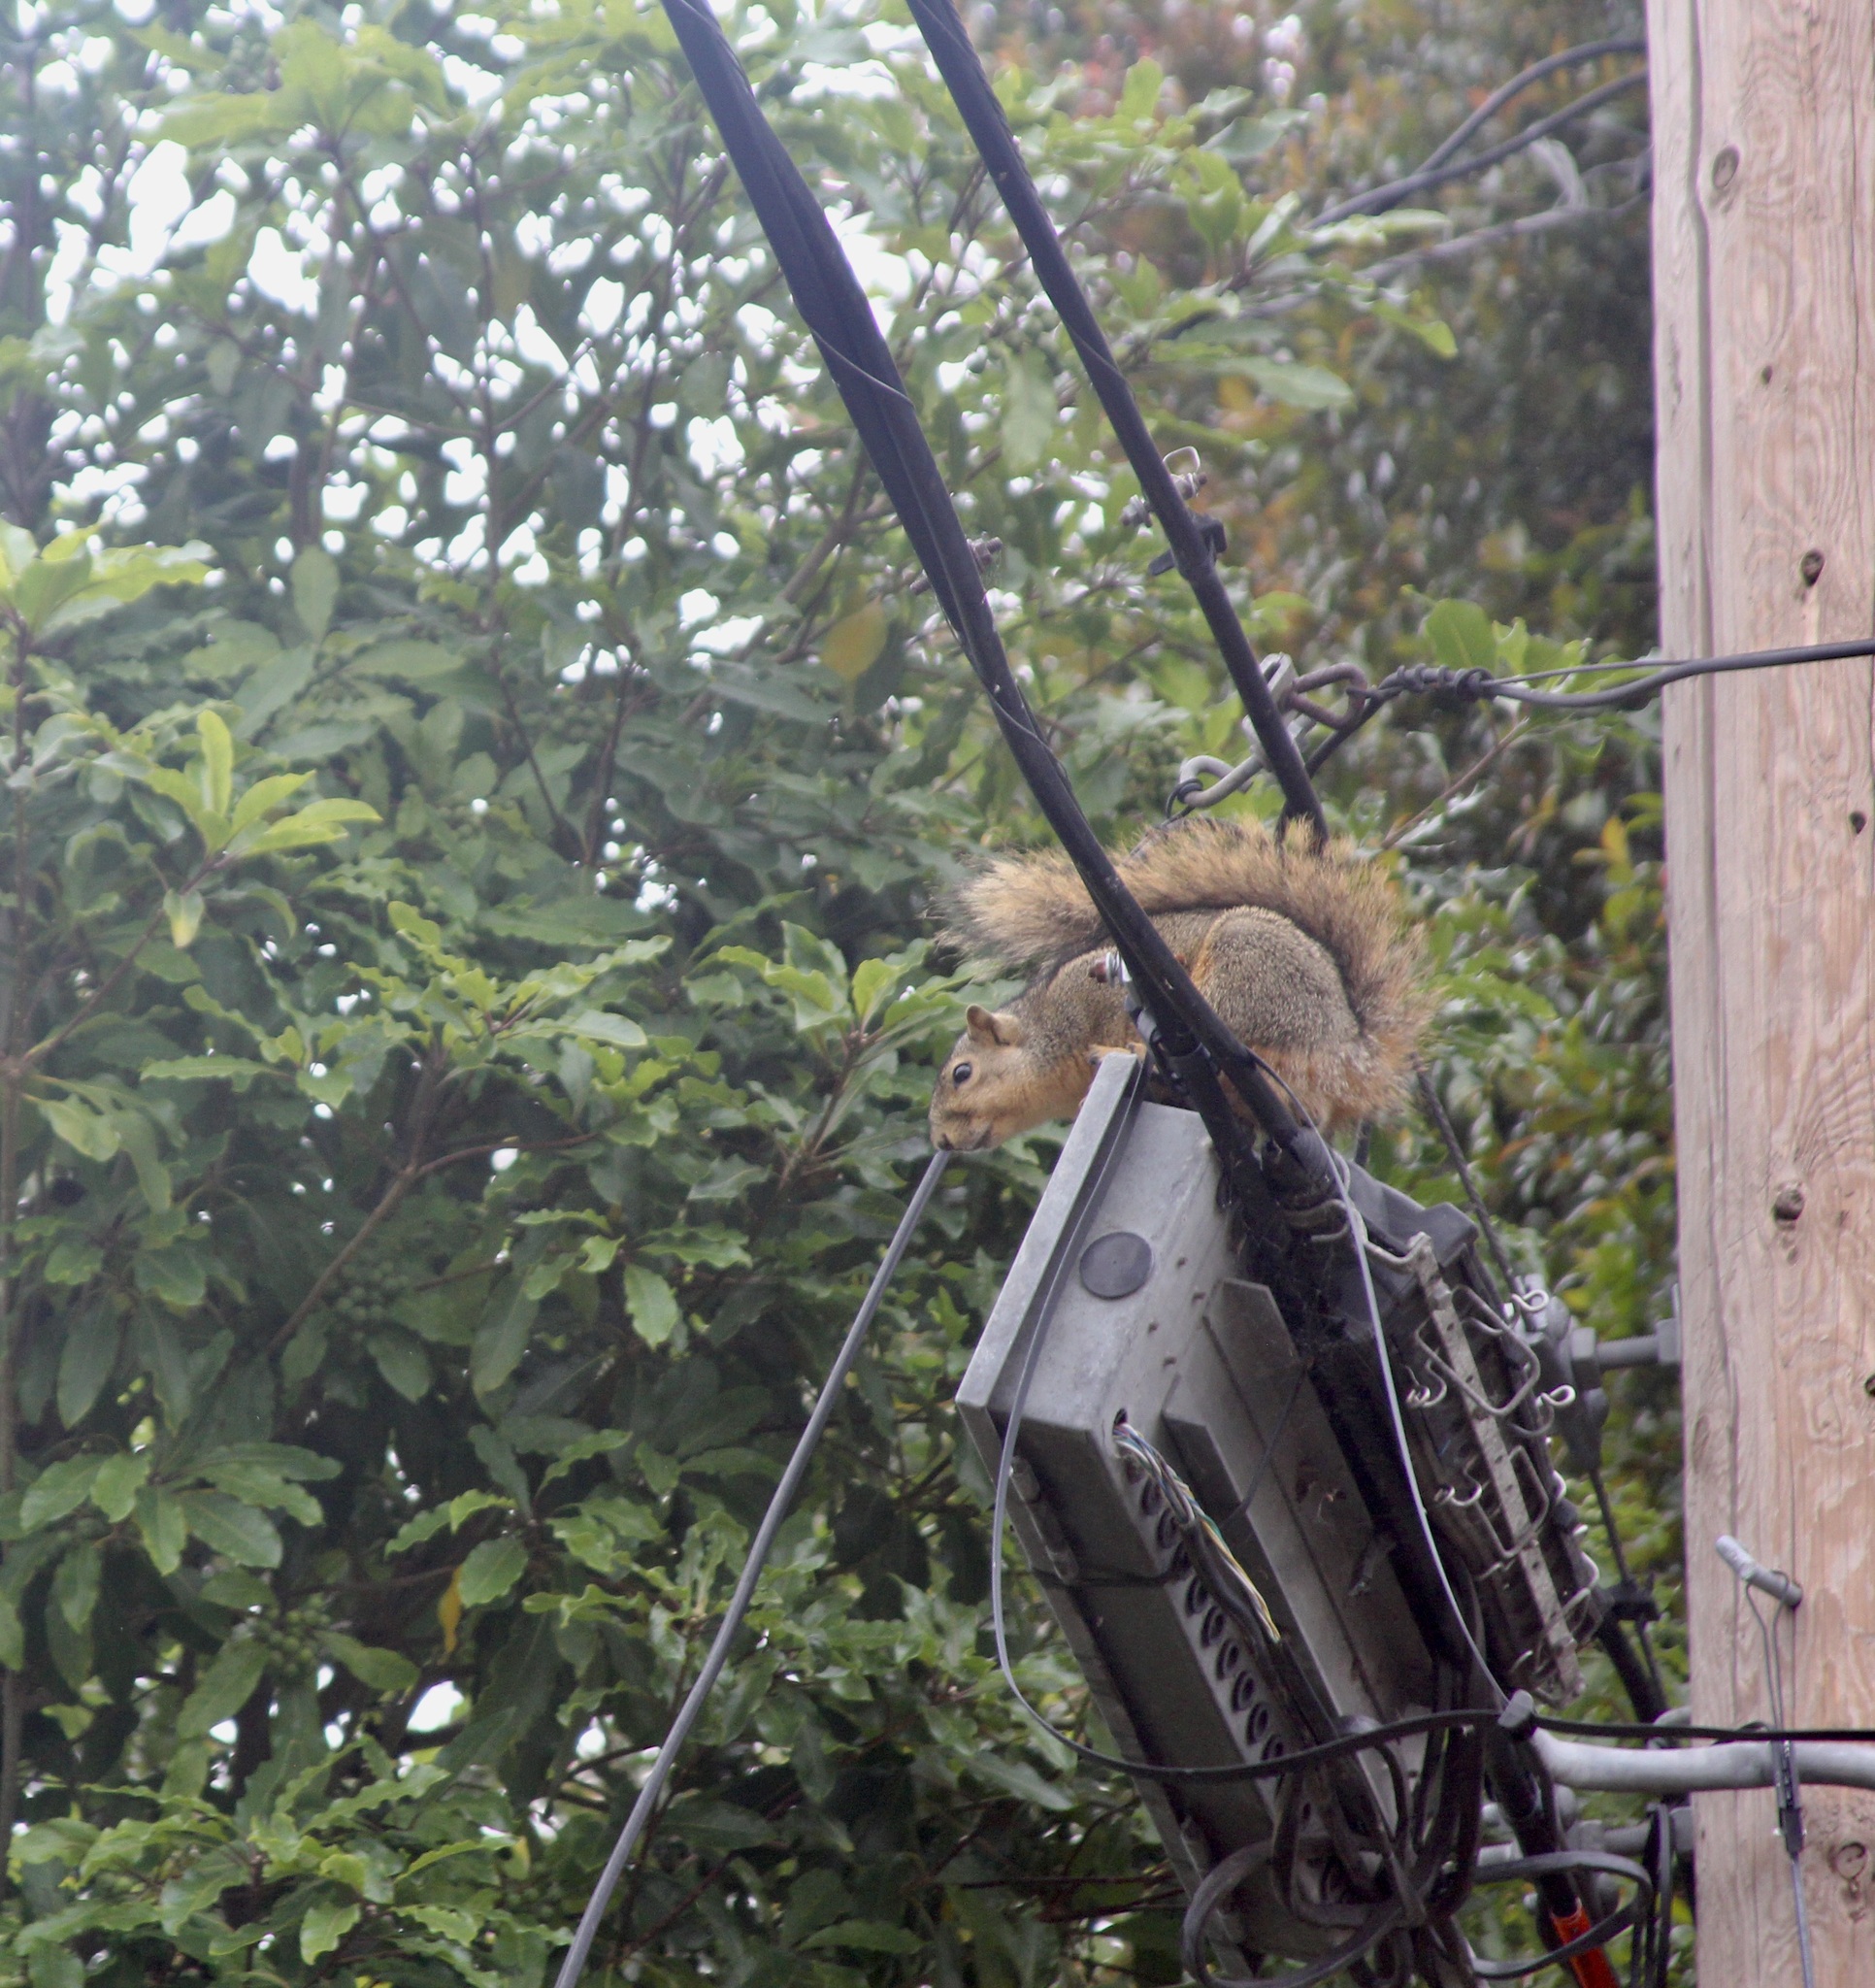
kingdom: Animalia
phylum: Chordata
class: Mammalia
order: Rodentia
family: Sciuridae
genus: Sciurus
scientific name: Sciurus niger
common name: Fox squirrel
